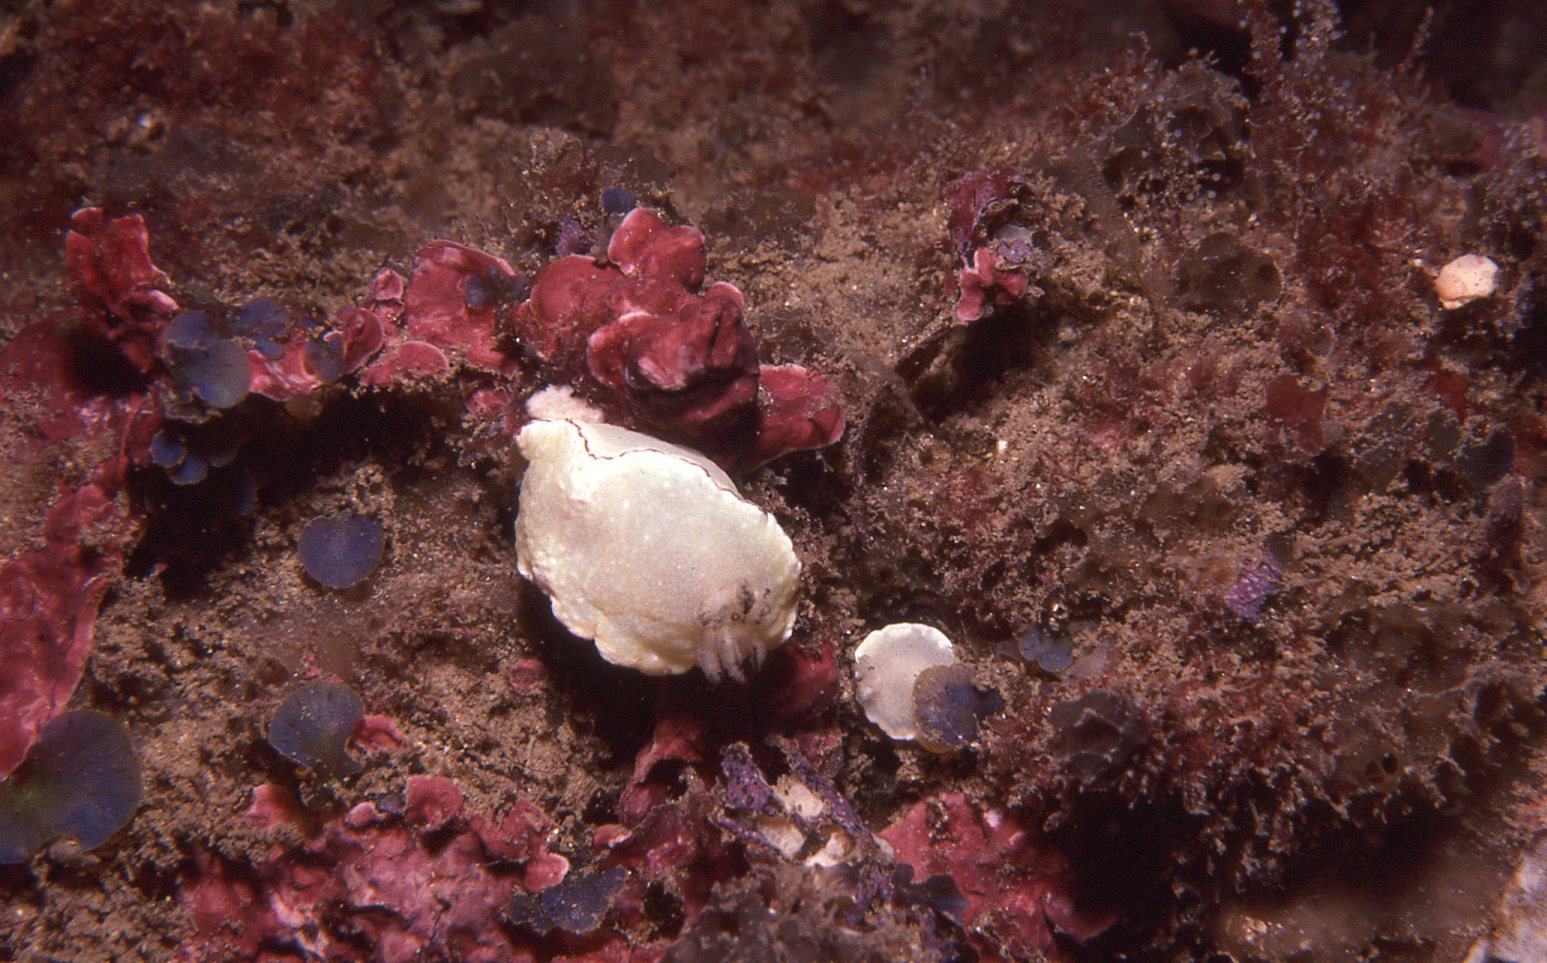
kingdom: Animalia
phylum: Mollusca
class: Gastropoda
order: Nudibranchia
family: Chromodorididae
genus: Glossodoris
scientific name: Glossodoris angasi
